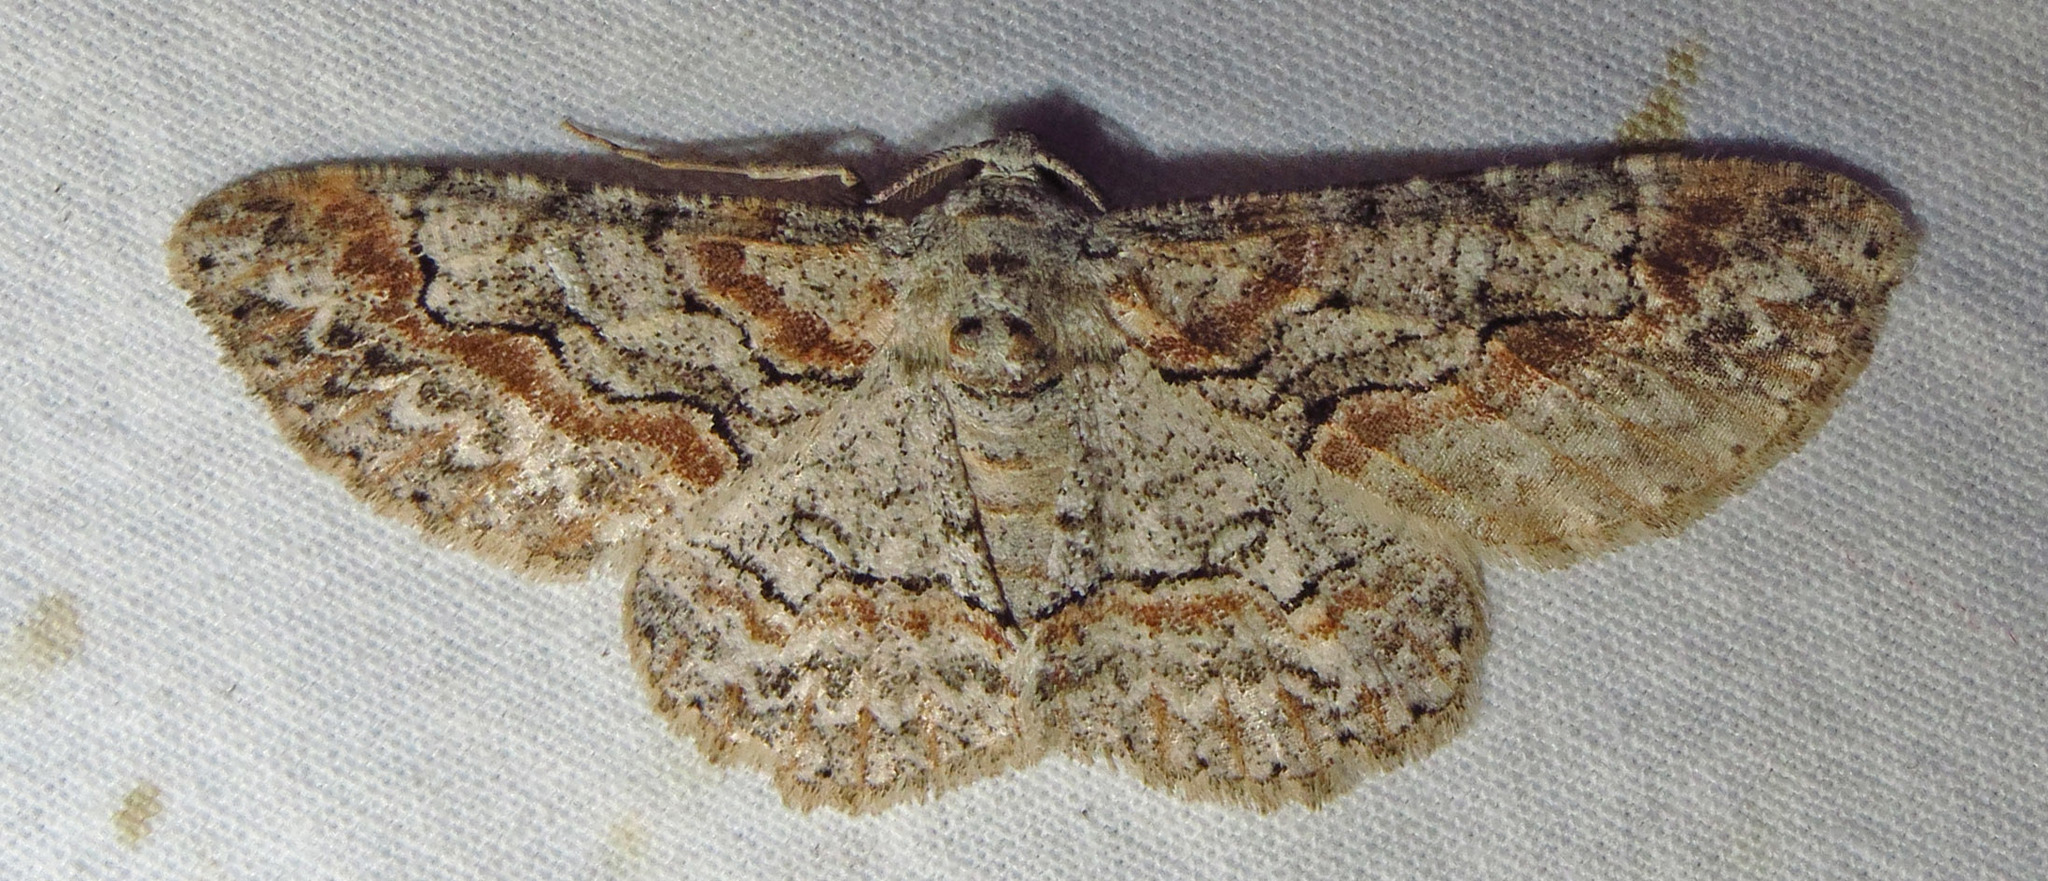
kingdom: Animalia
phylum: Arthropoda
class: Insecta
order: Lepidoptera
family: Geometridae
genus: Iridopsis
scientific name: Iridopsis defectaria
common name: Brown-shaded gray
